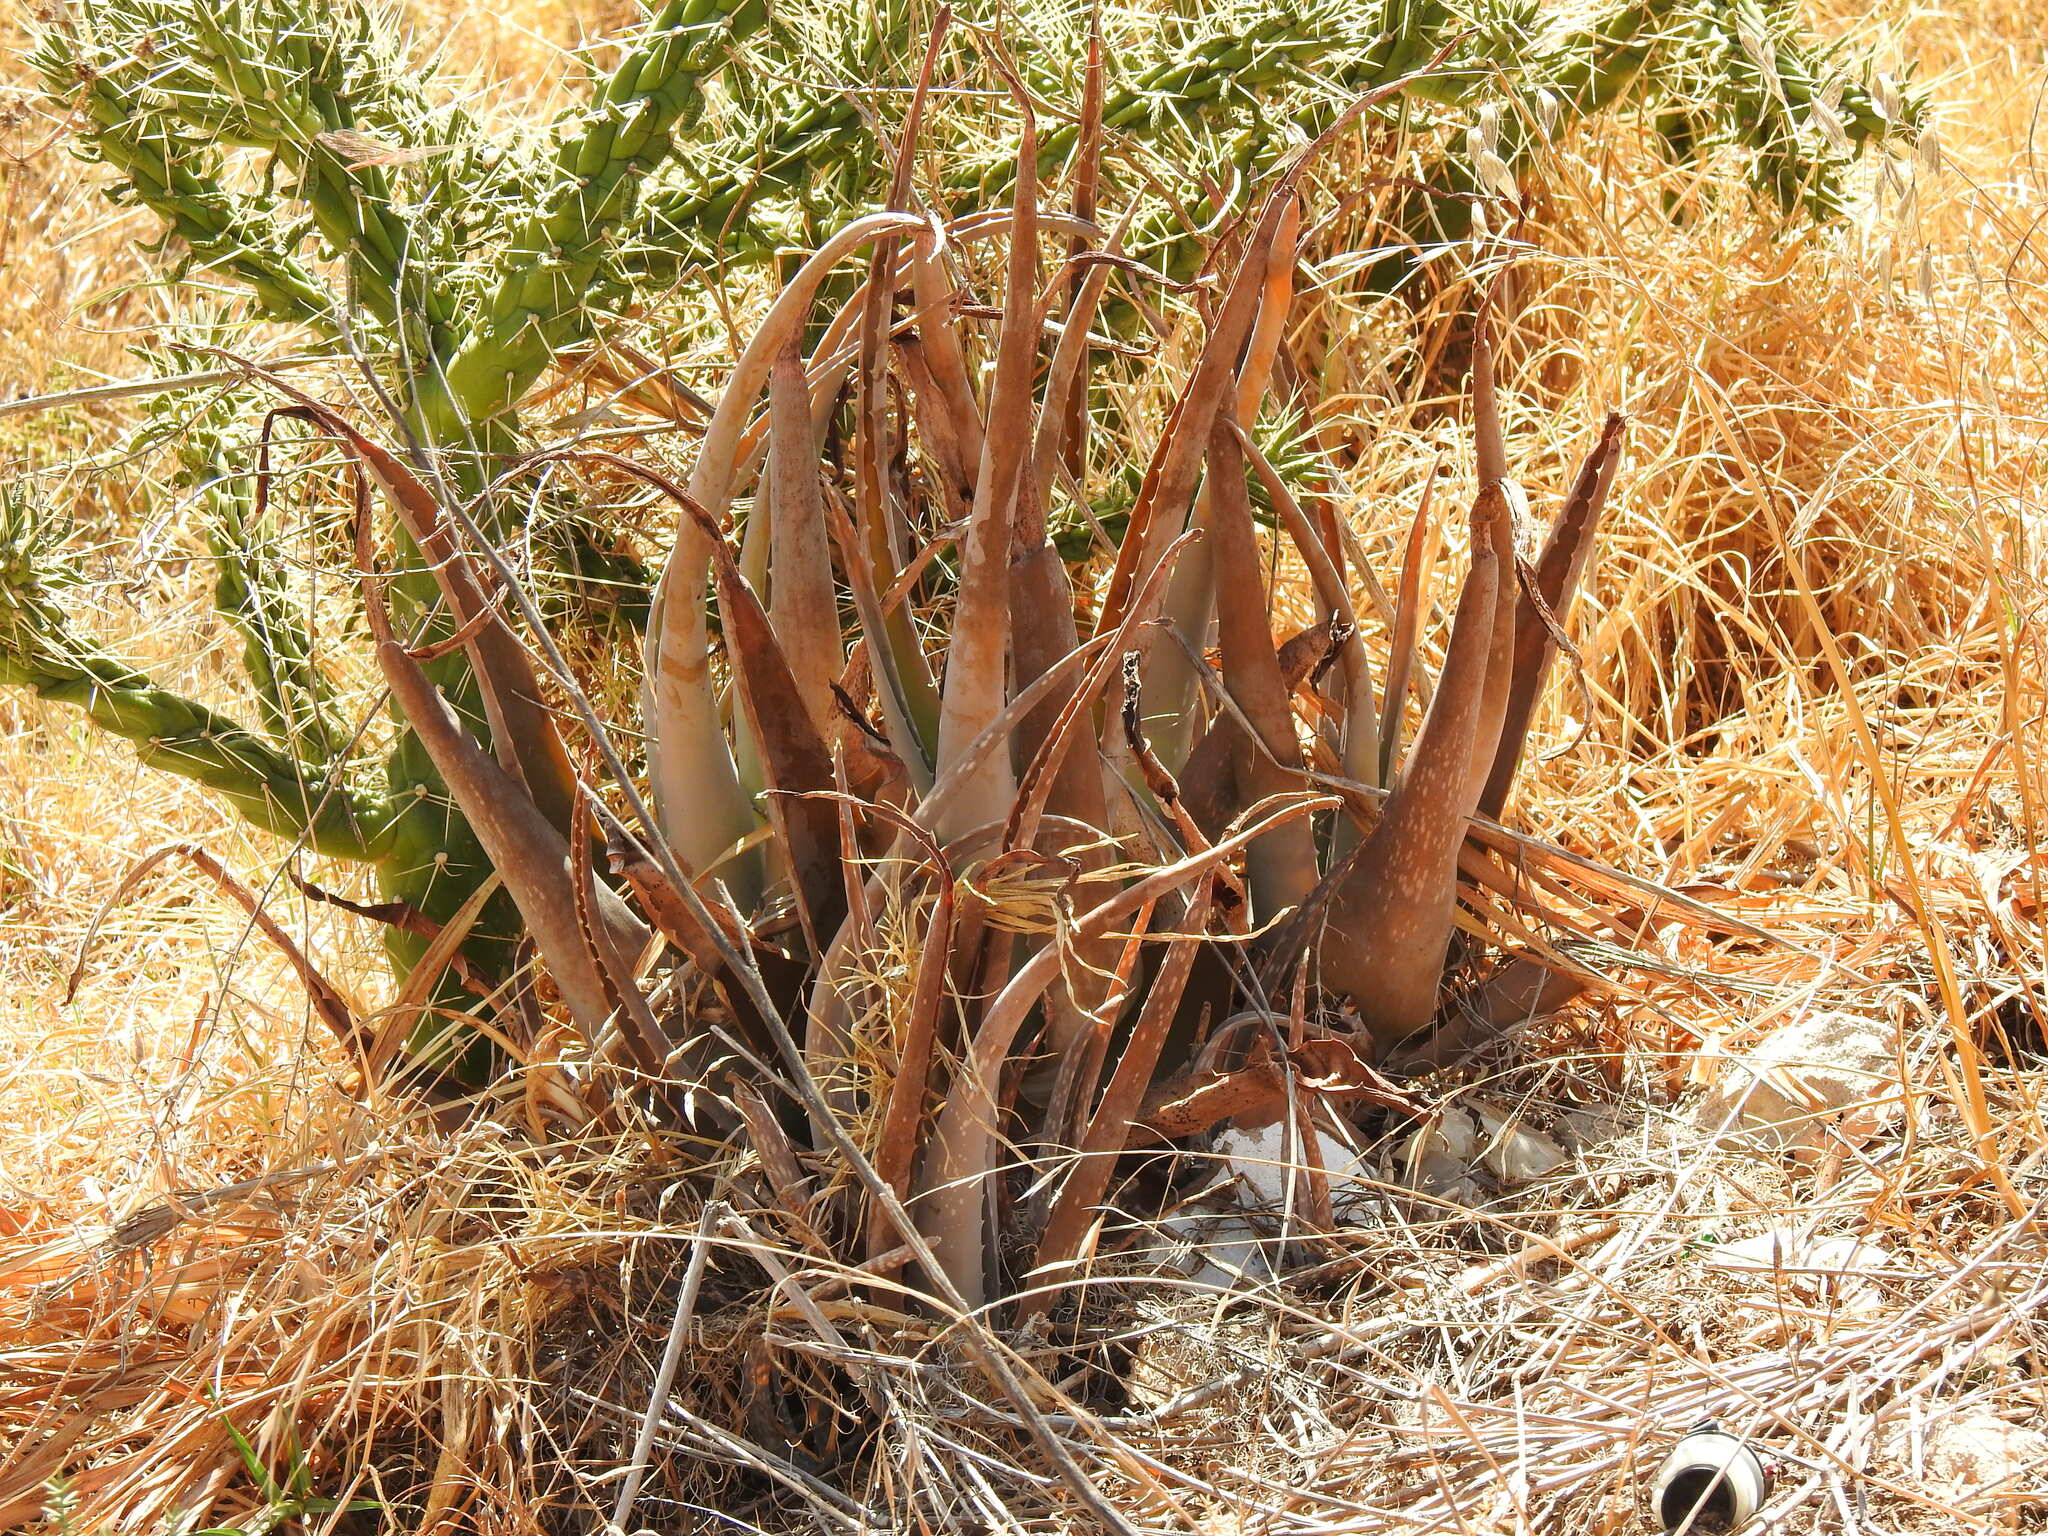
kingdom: Plantae
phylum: Tracheophyta
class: Liliopsida
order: Asparagales
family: Asphodelaceae
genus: Aloe
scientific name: Aloe vera
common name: Barbados aloe
